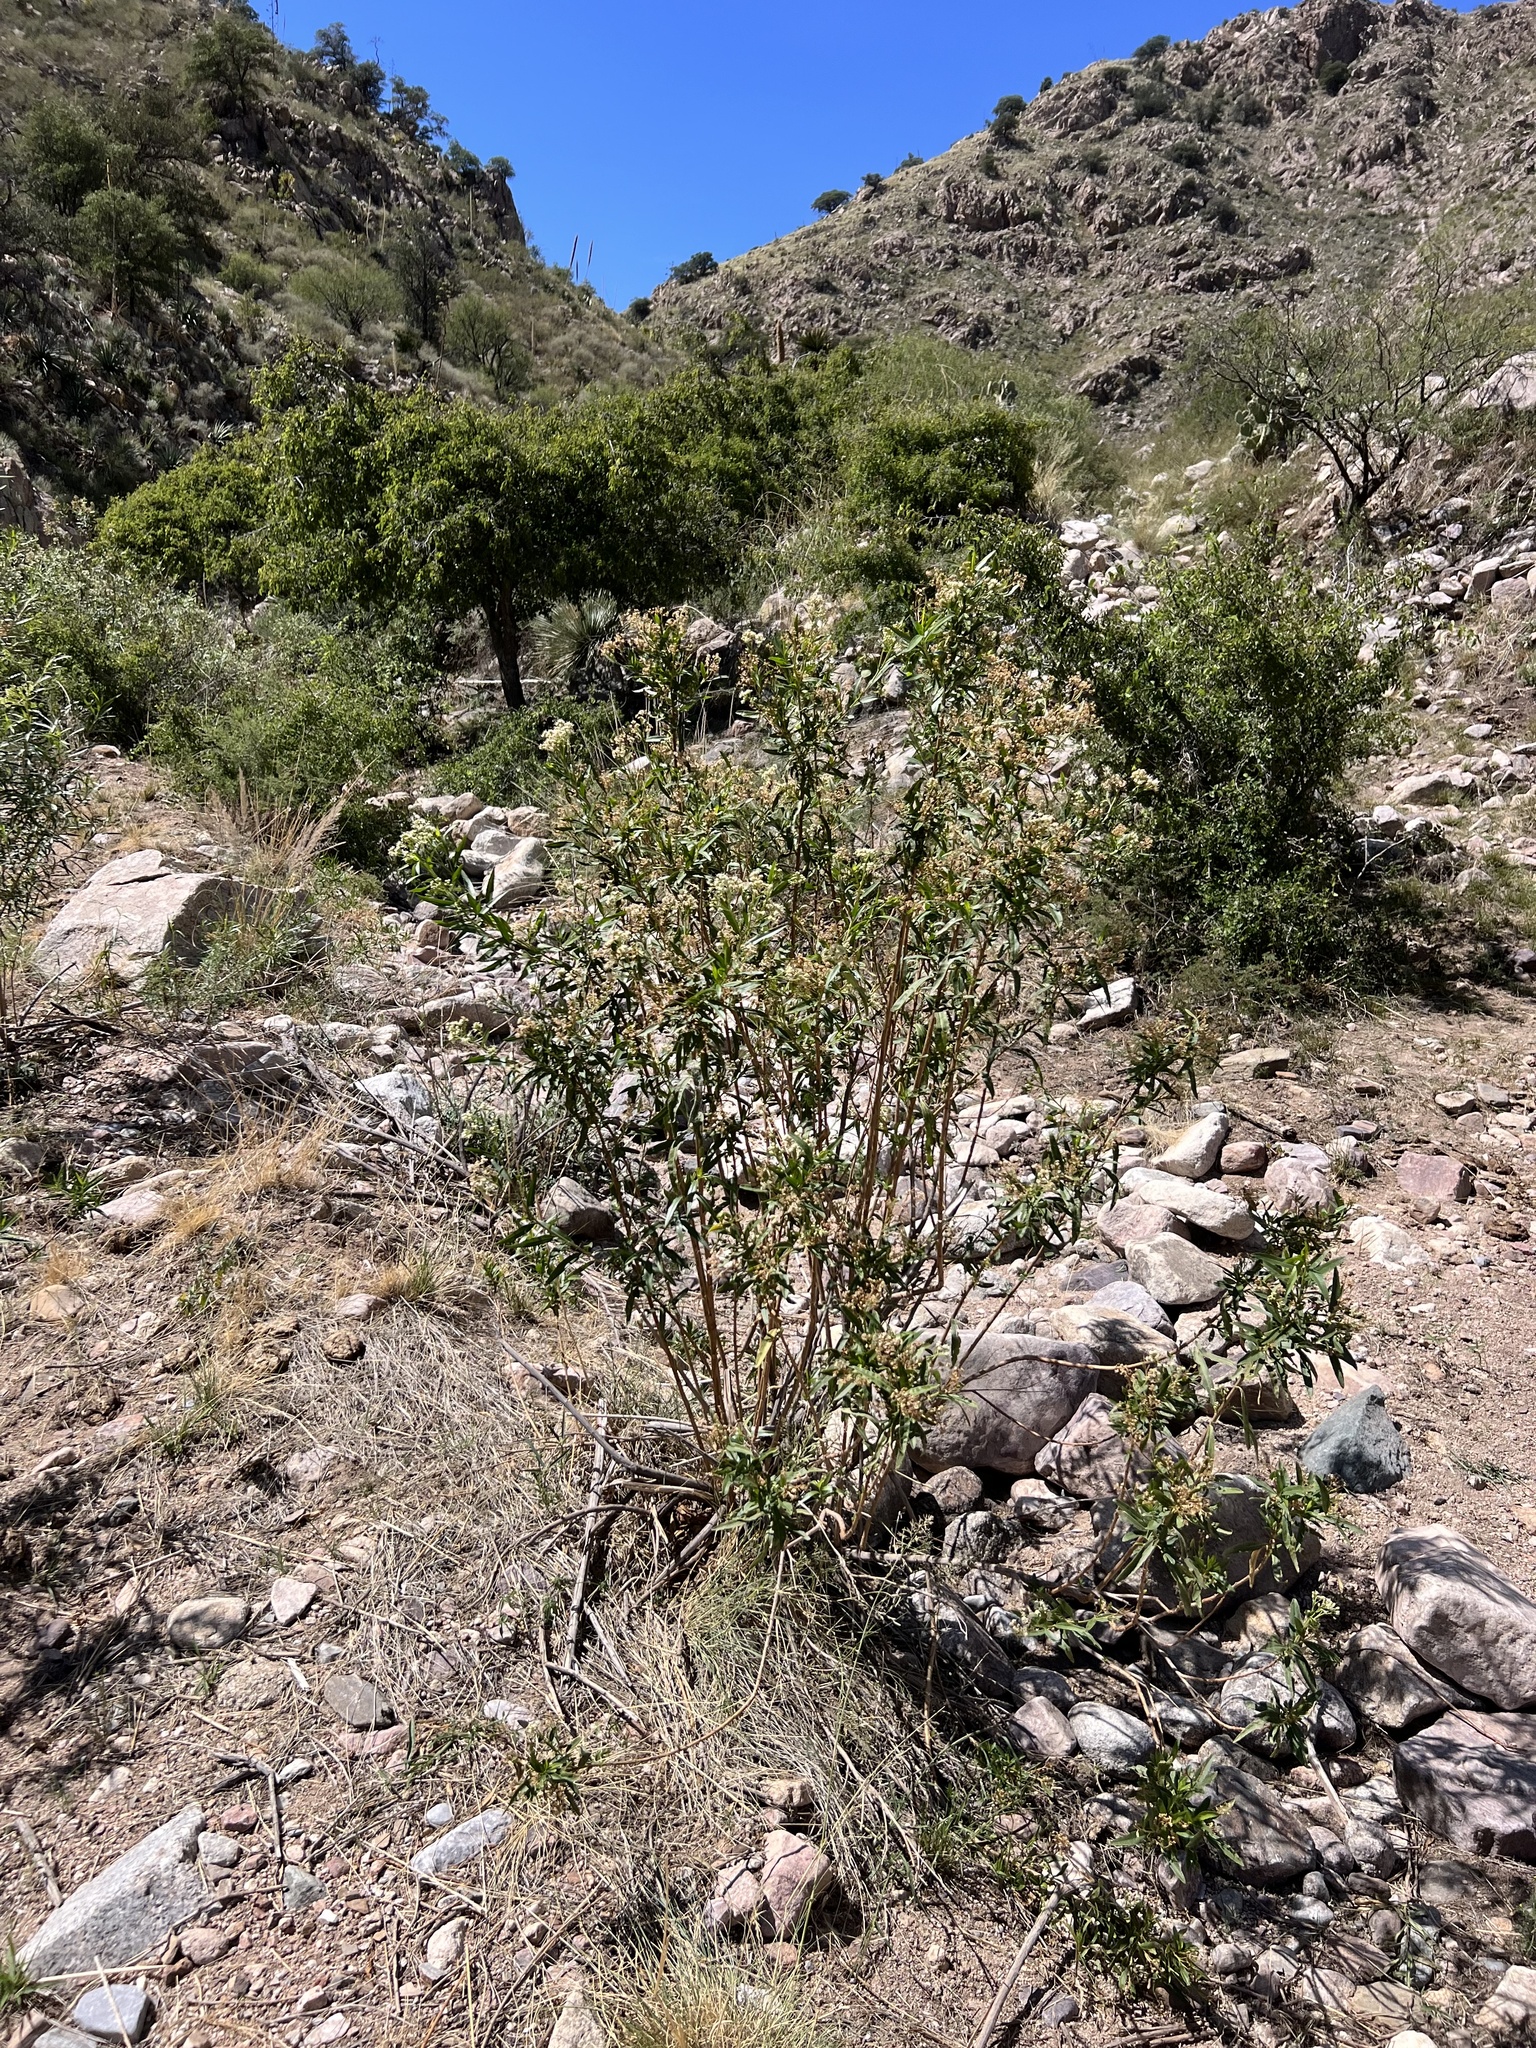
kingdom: Plantae
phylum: Tracheophyta
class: Magnoliopsida
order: Asterales
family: Asteraceae
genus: Baccharis
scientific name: Baccharis salicifolia
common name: Sticky baccharis
